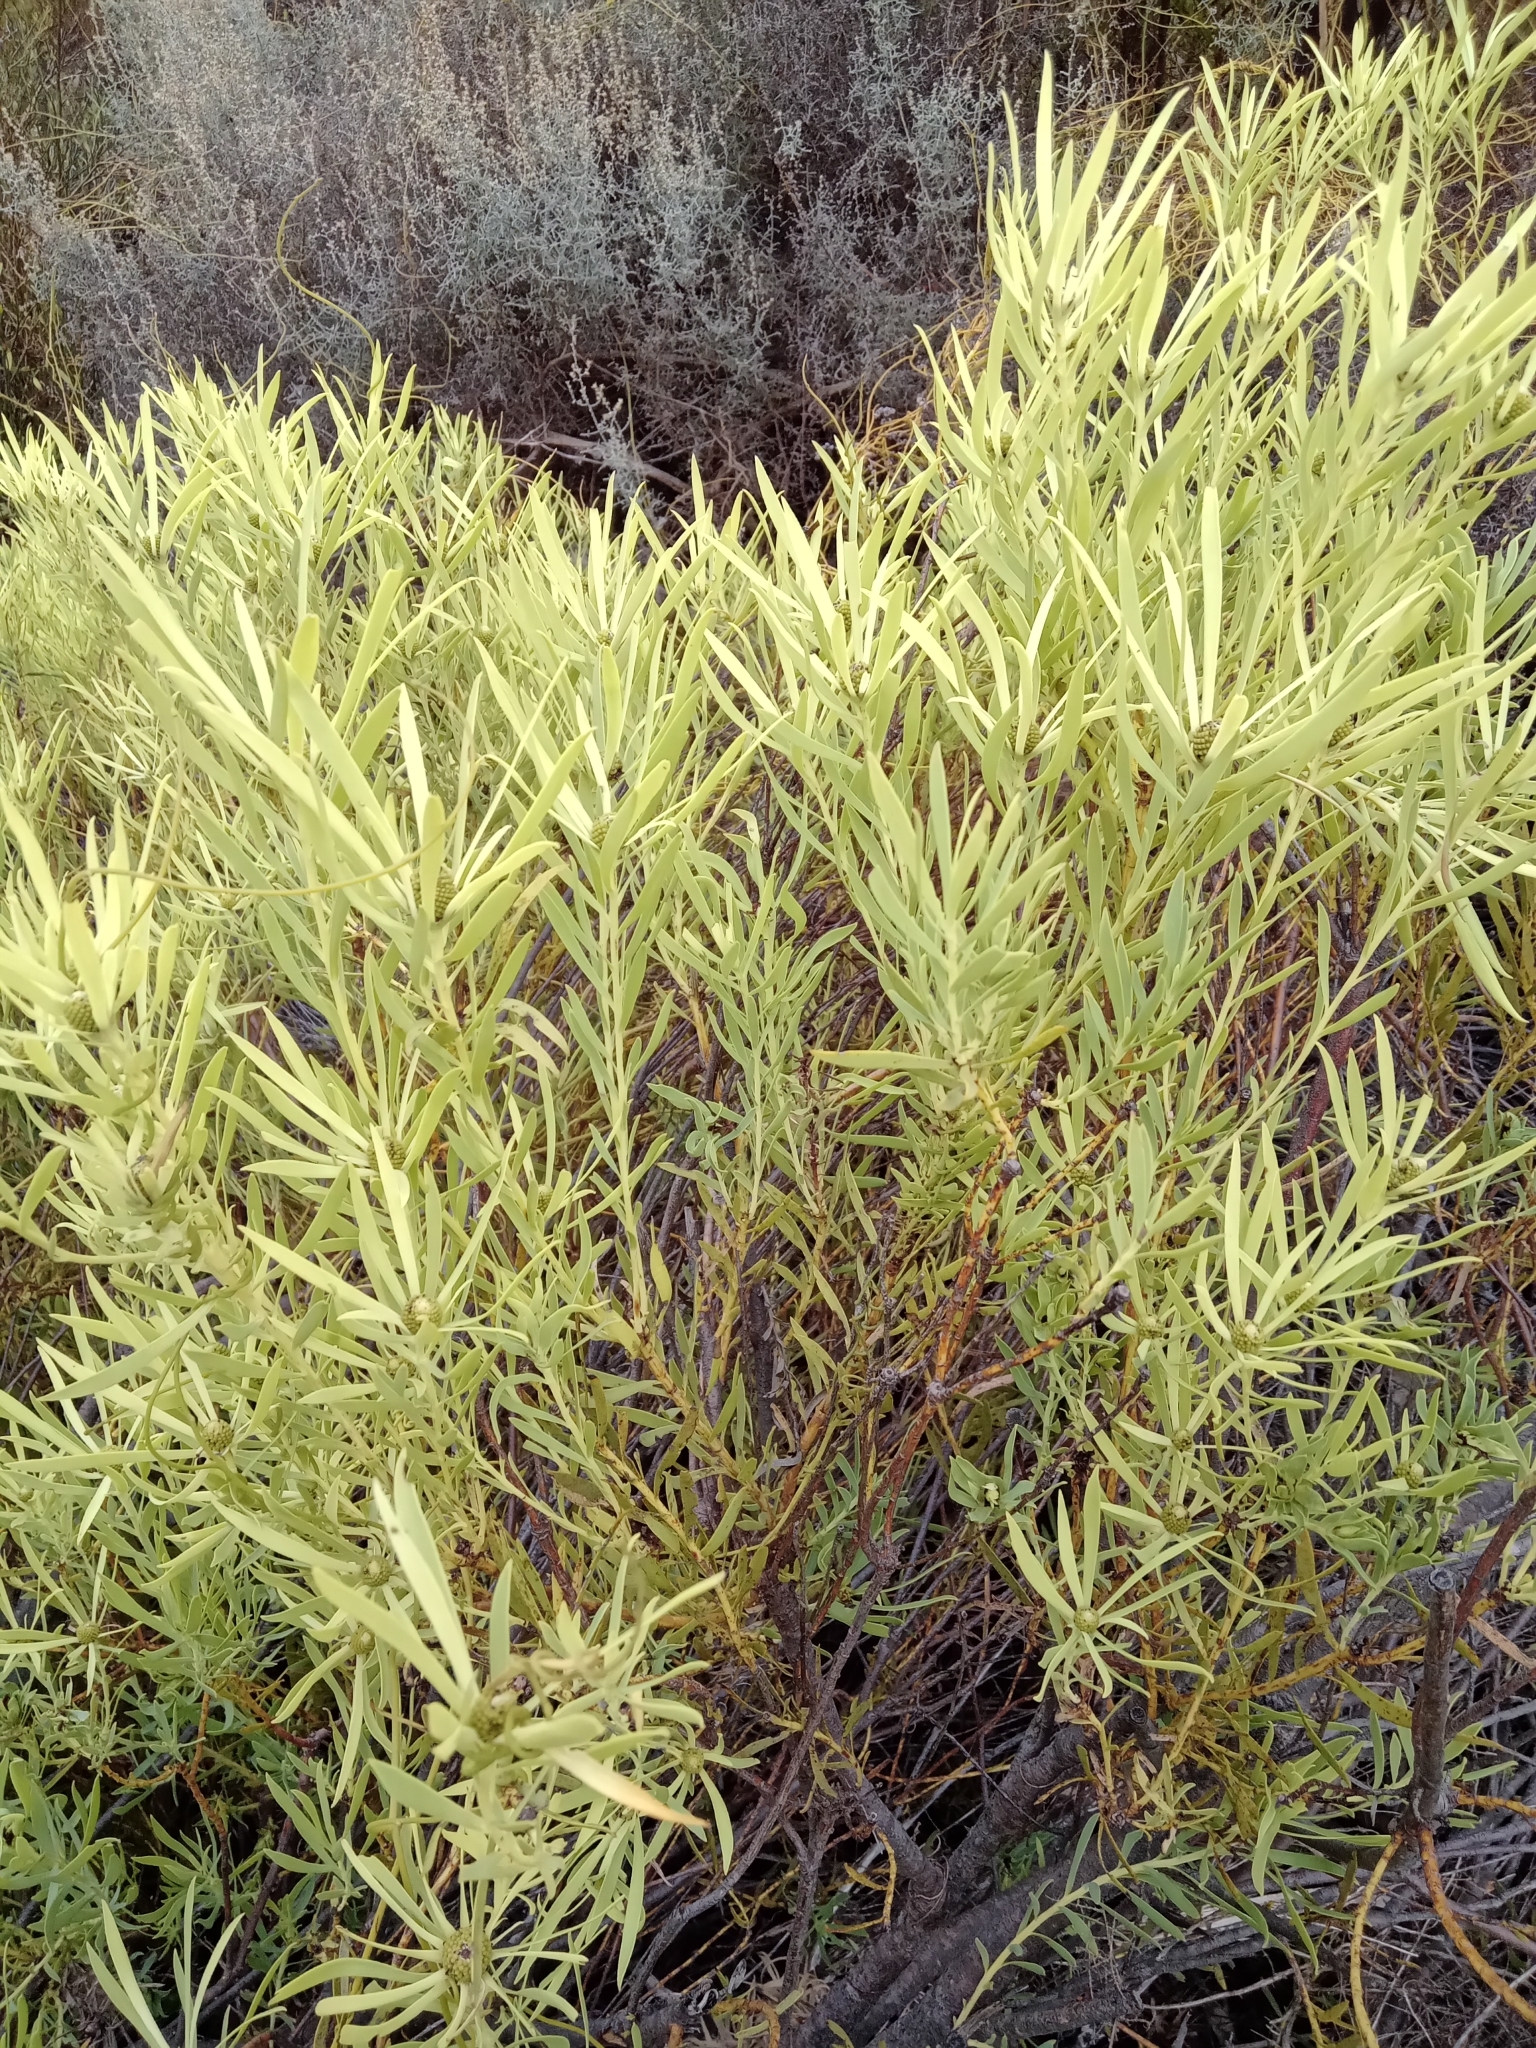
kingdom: Plantae
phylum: Tracheophyta
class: Magnoliopsida
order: Proteales
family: Proteaceae
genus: Leucadendron
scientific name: Leucadendron salignum
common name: Common sunshine conebush
